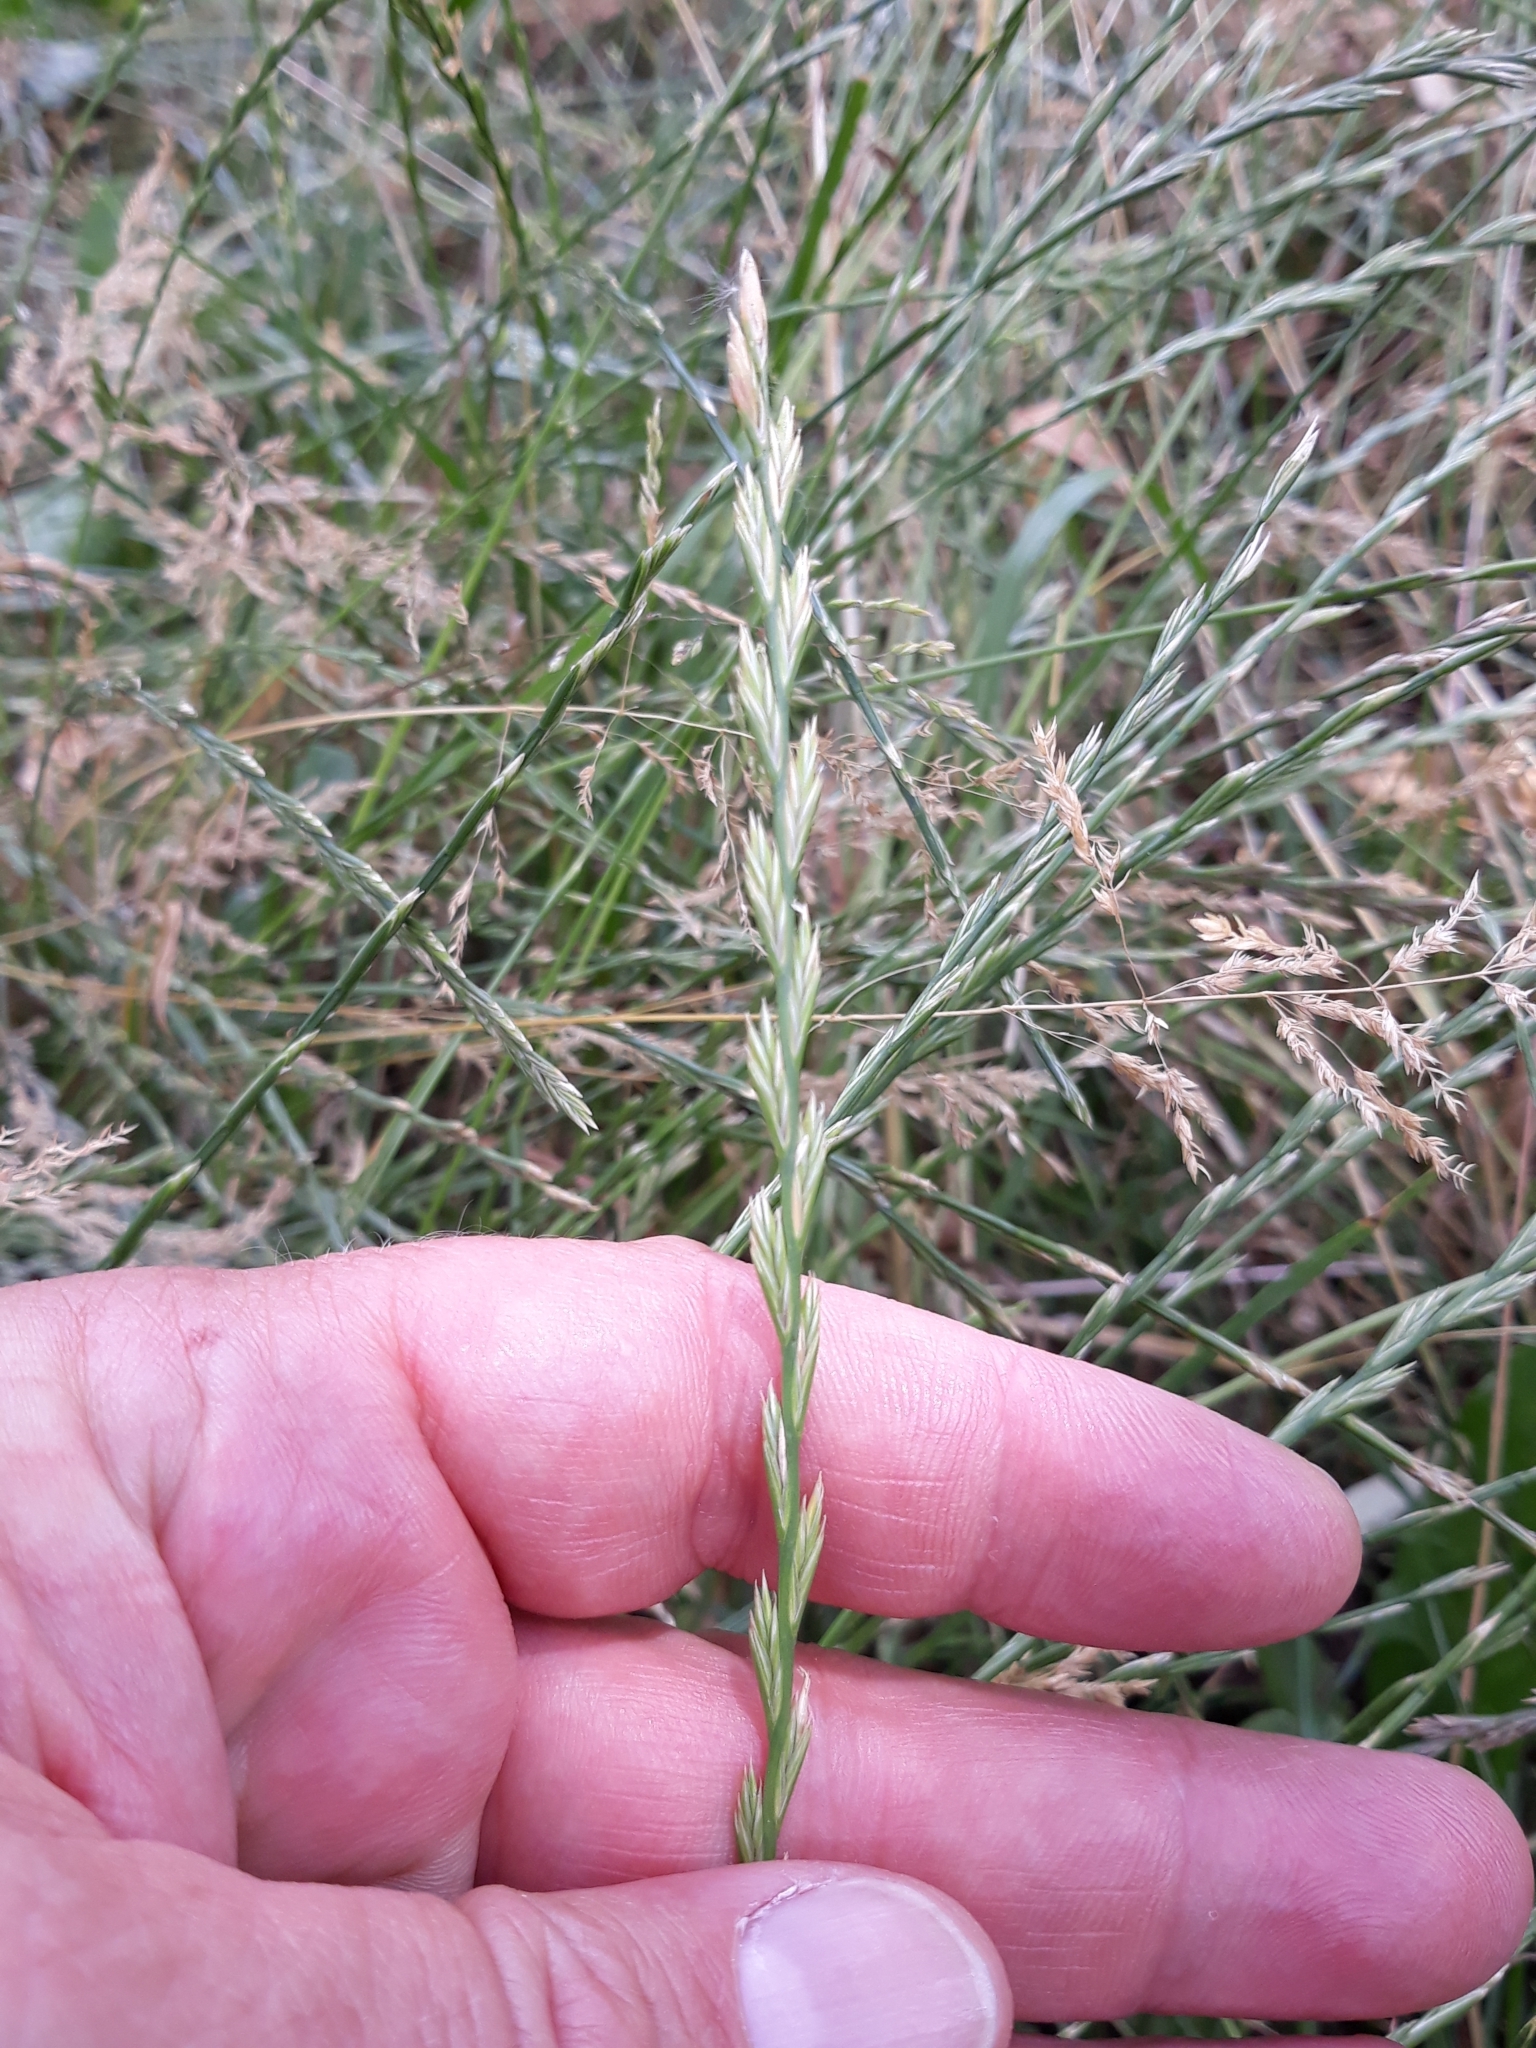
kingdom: Plantae
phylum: Tracheophyta
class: Liliopsida
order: Poales
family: Poaceae
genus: Lolium
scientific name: Lolium perenne
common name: Perennial ryegrass
